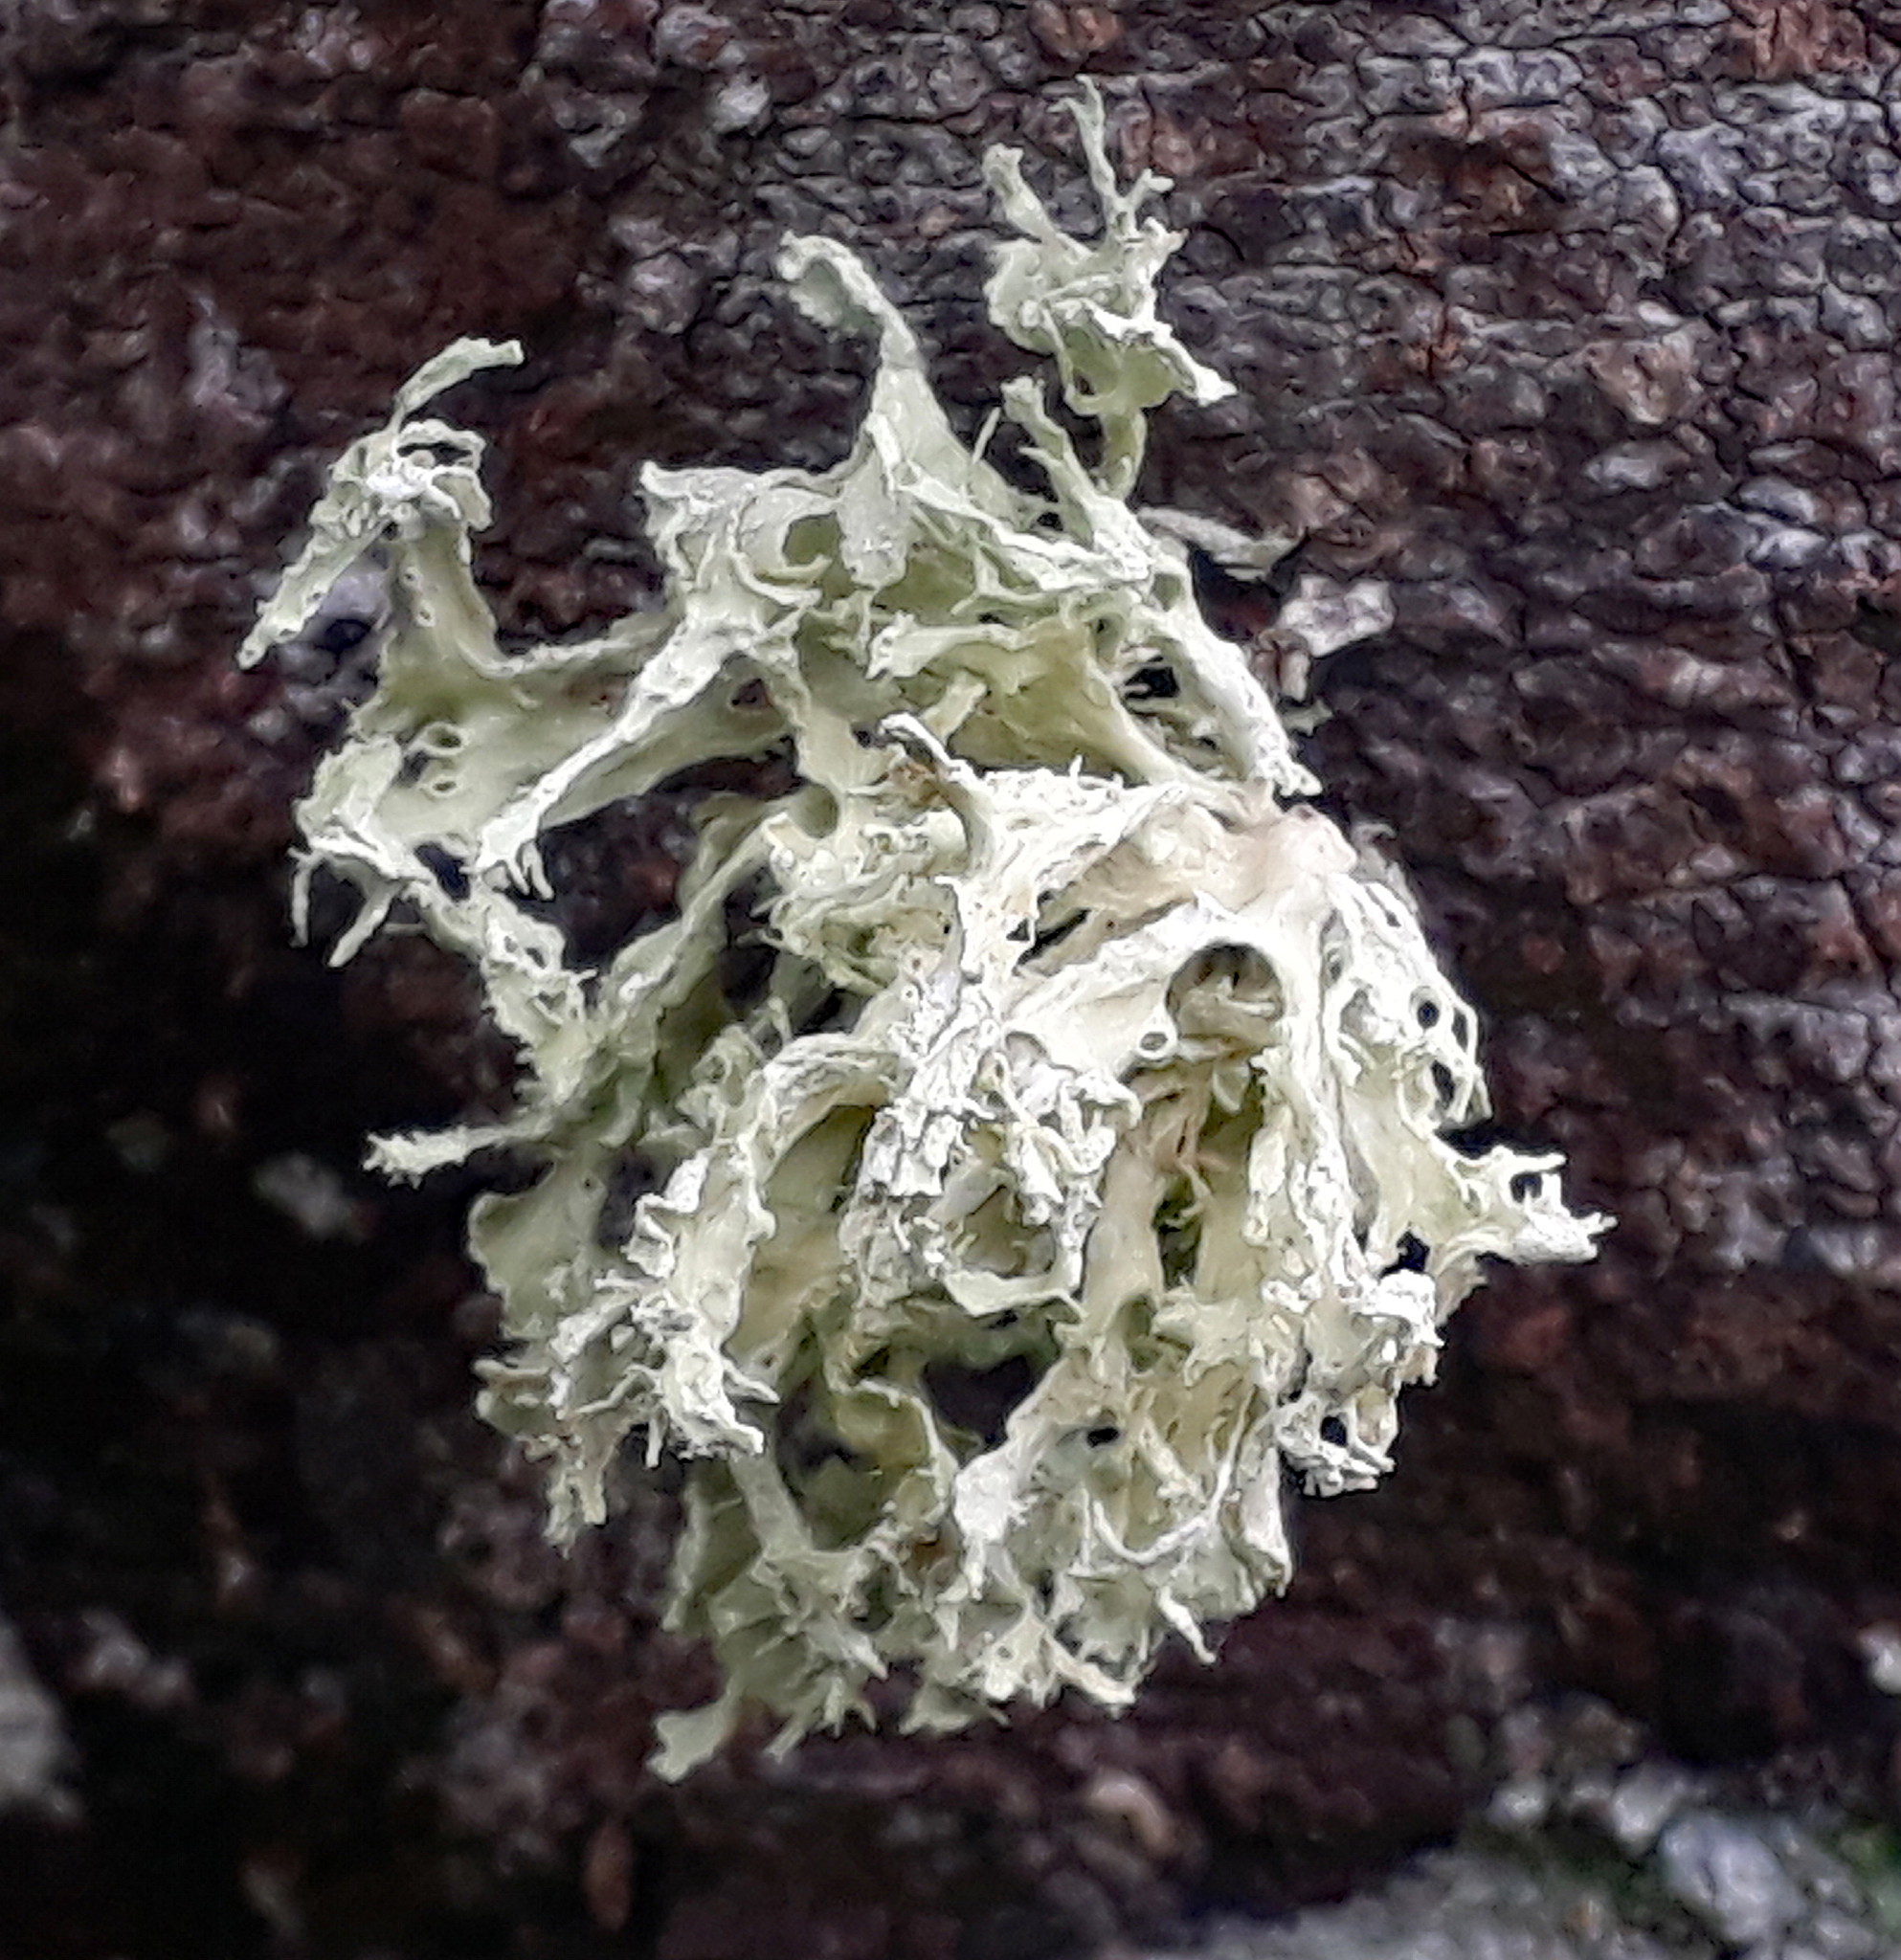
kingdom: Fungi
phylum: Ascomycota
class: Lecanoromycetes
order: Lecanorales
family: Ramalinaceae
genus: Ramalina
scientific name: Ramalina canariensis
